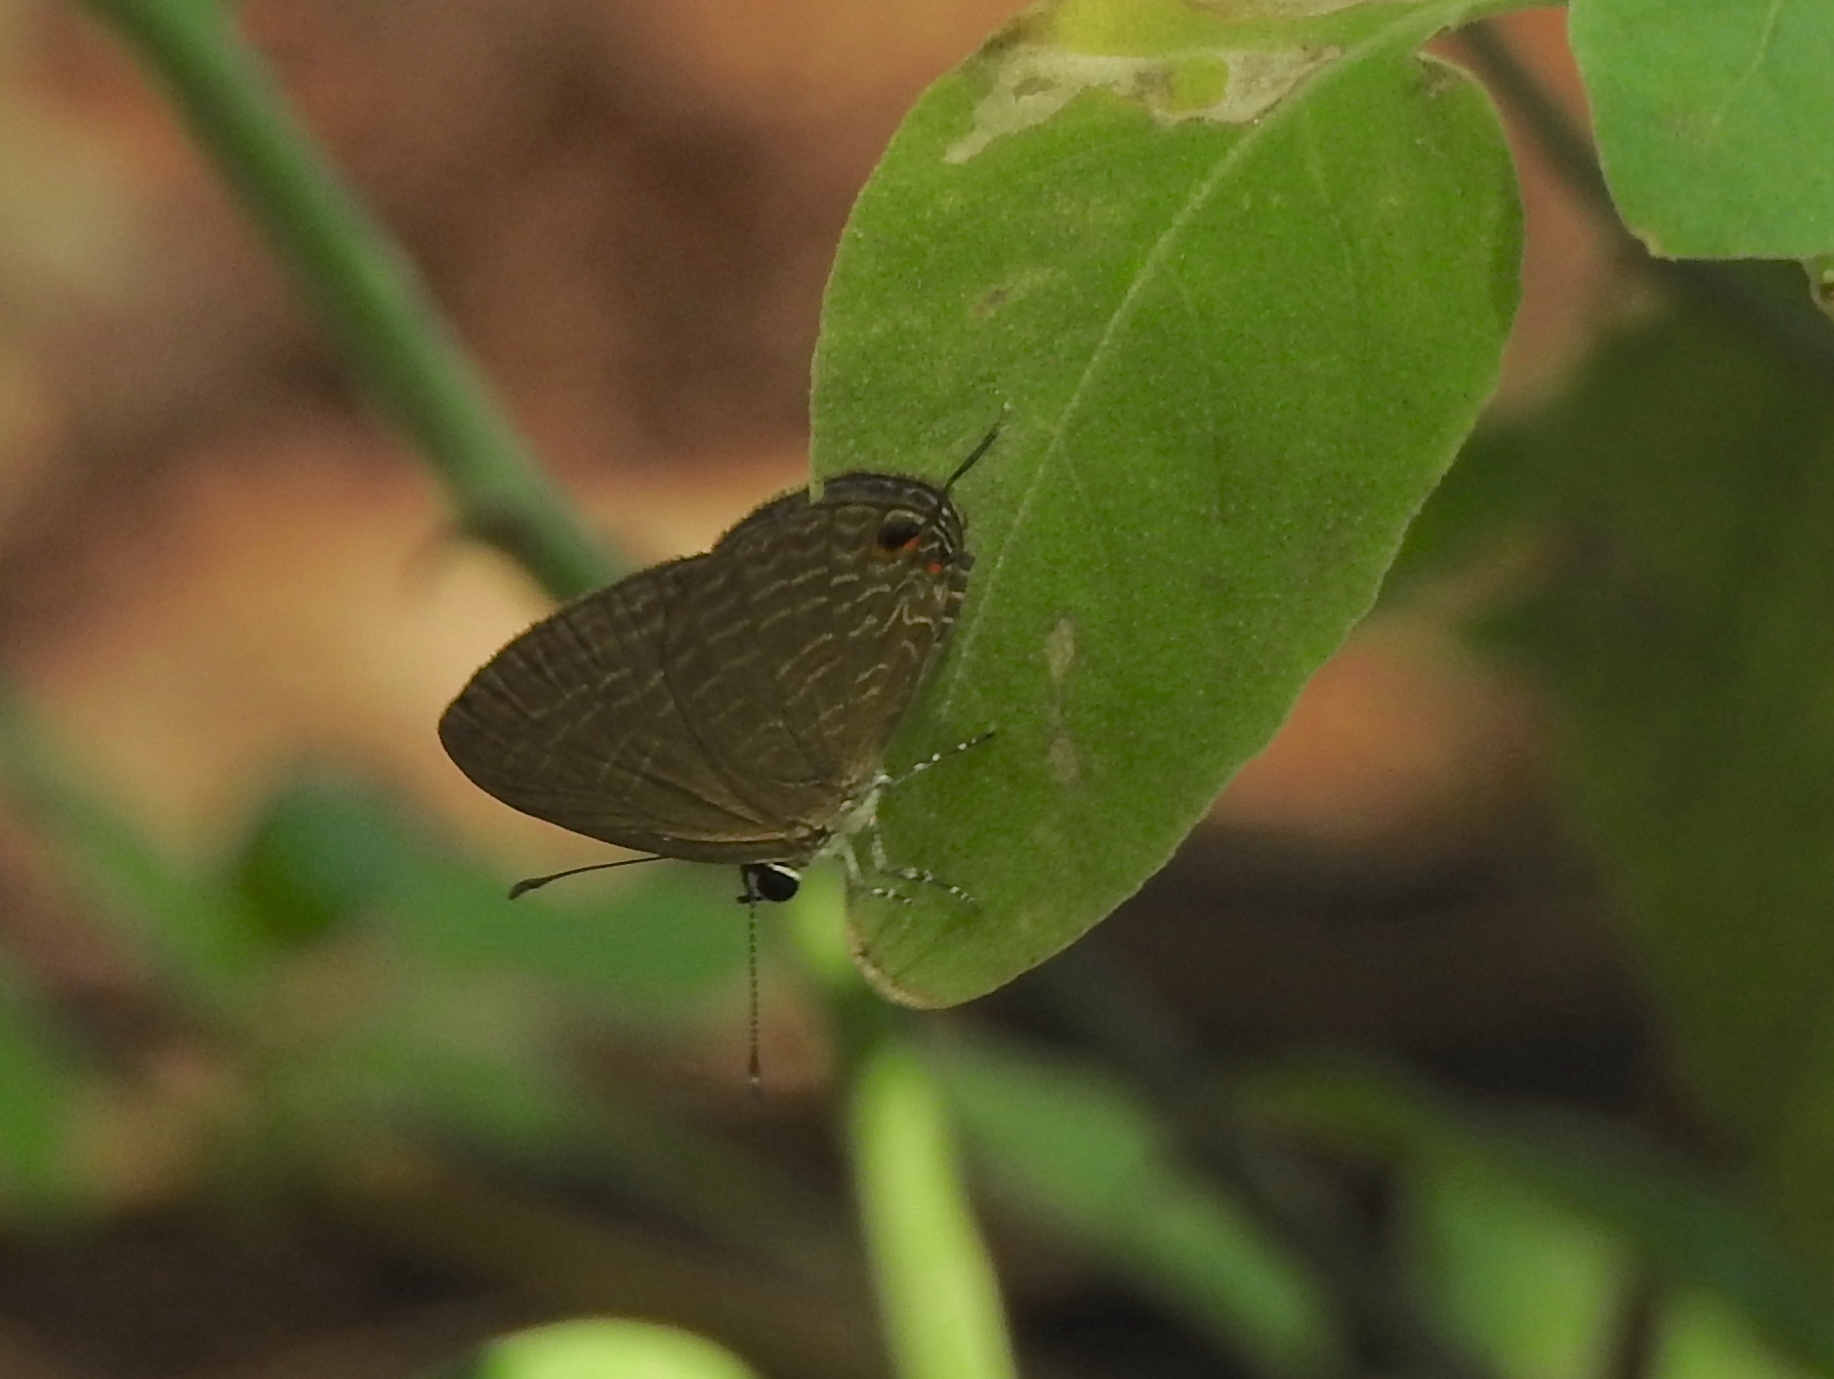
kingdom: Animalia
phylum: Arthropoda
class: Insecta
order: Lepidoptera
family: Lycaenidae
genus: Jamides
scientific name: Jamides bochus
